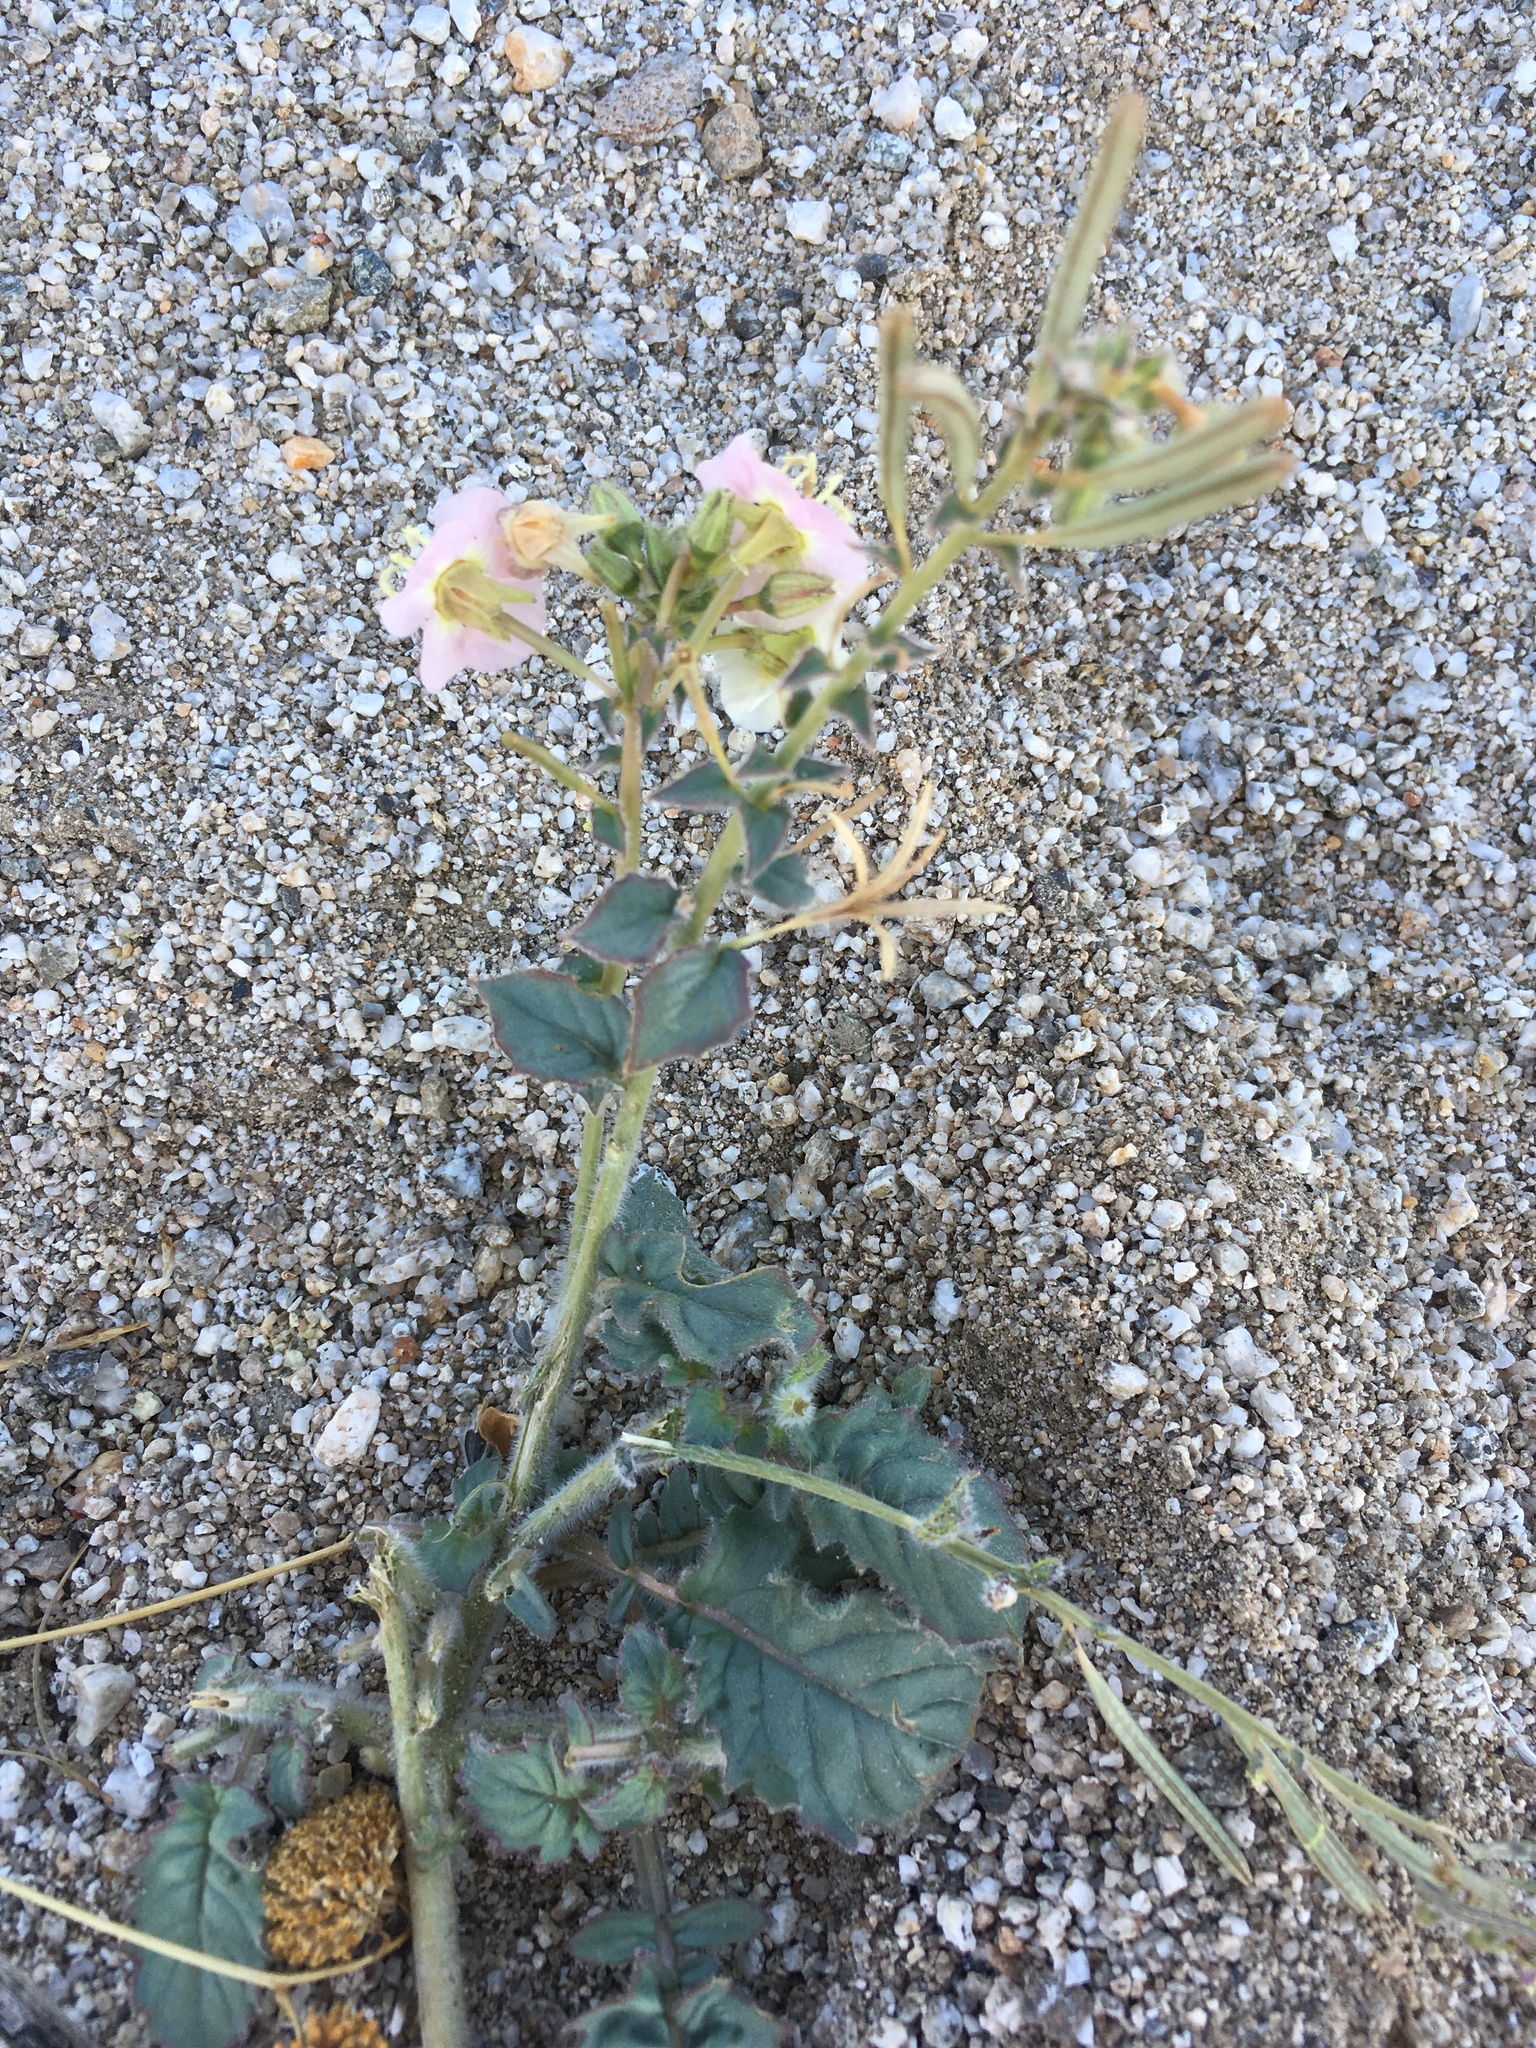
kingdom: Plantae
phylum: Tracheophyta
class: Magnoliopsida
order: Myrtales
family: Onagraceae
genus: Chylismia
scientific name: Chylismia claviformis
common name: Browneyes
